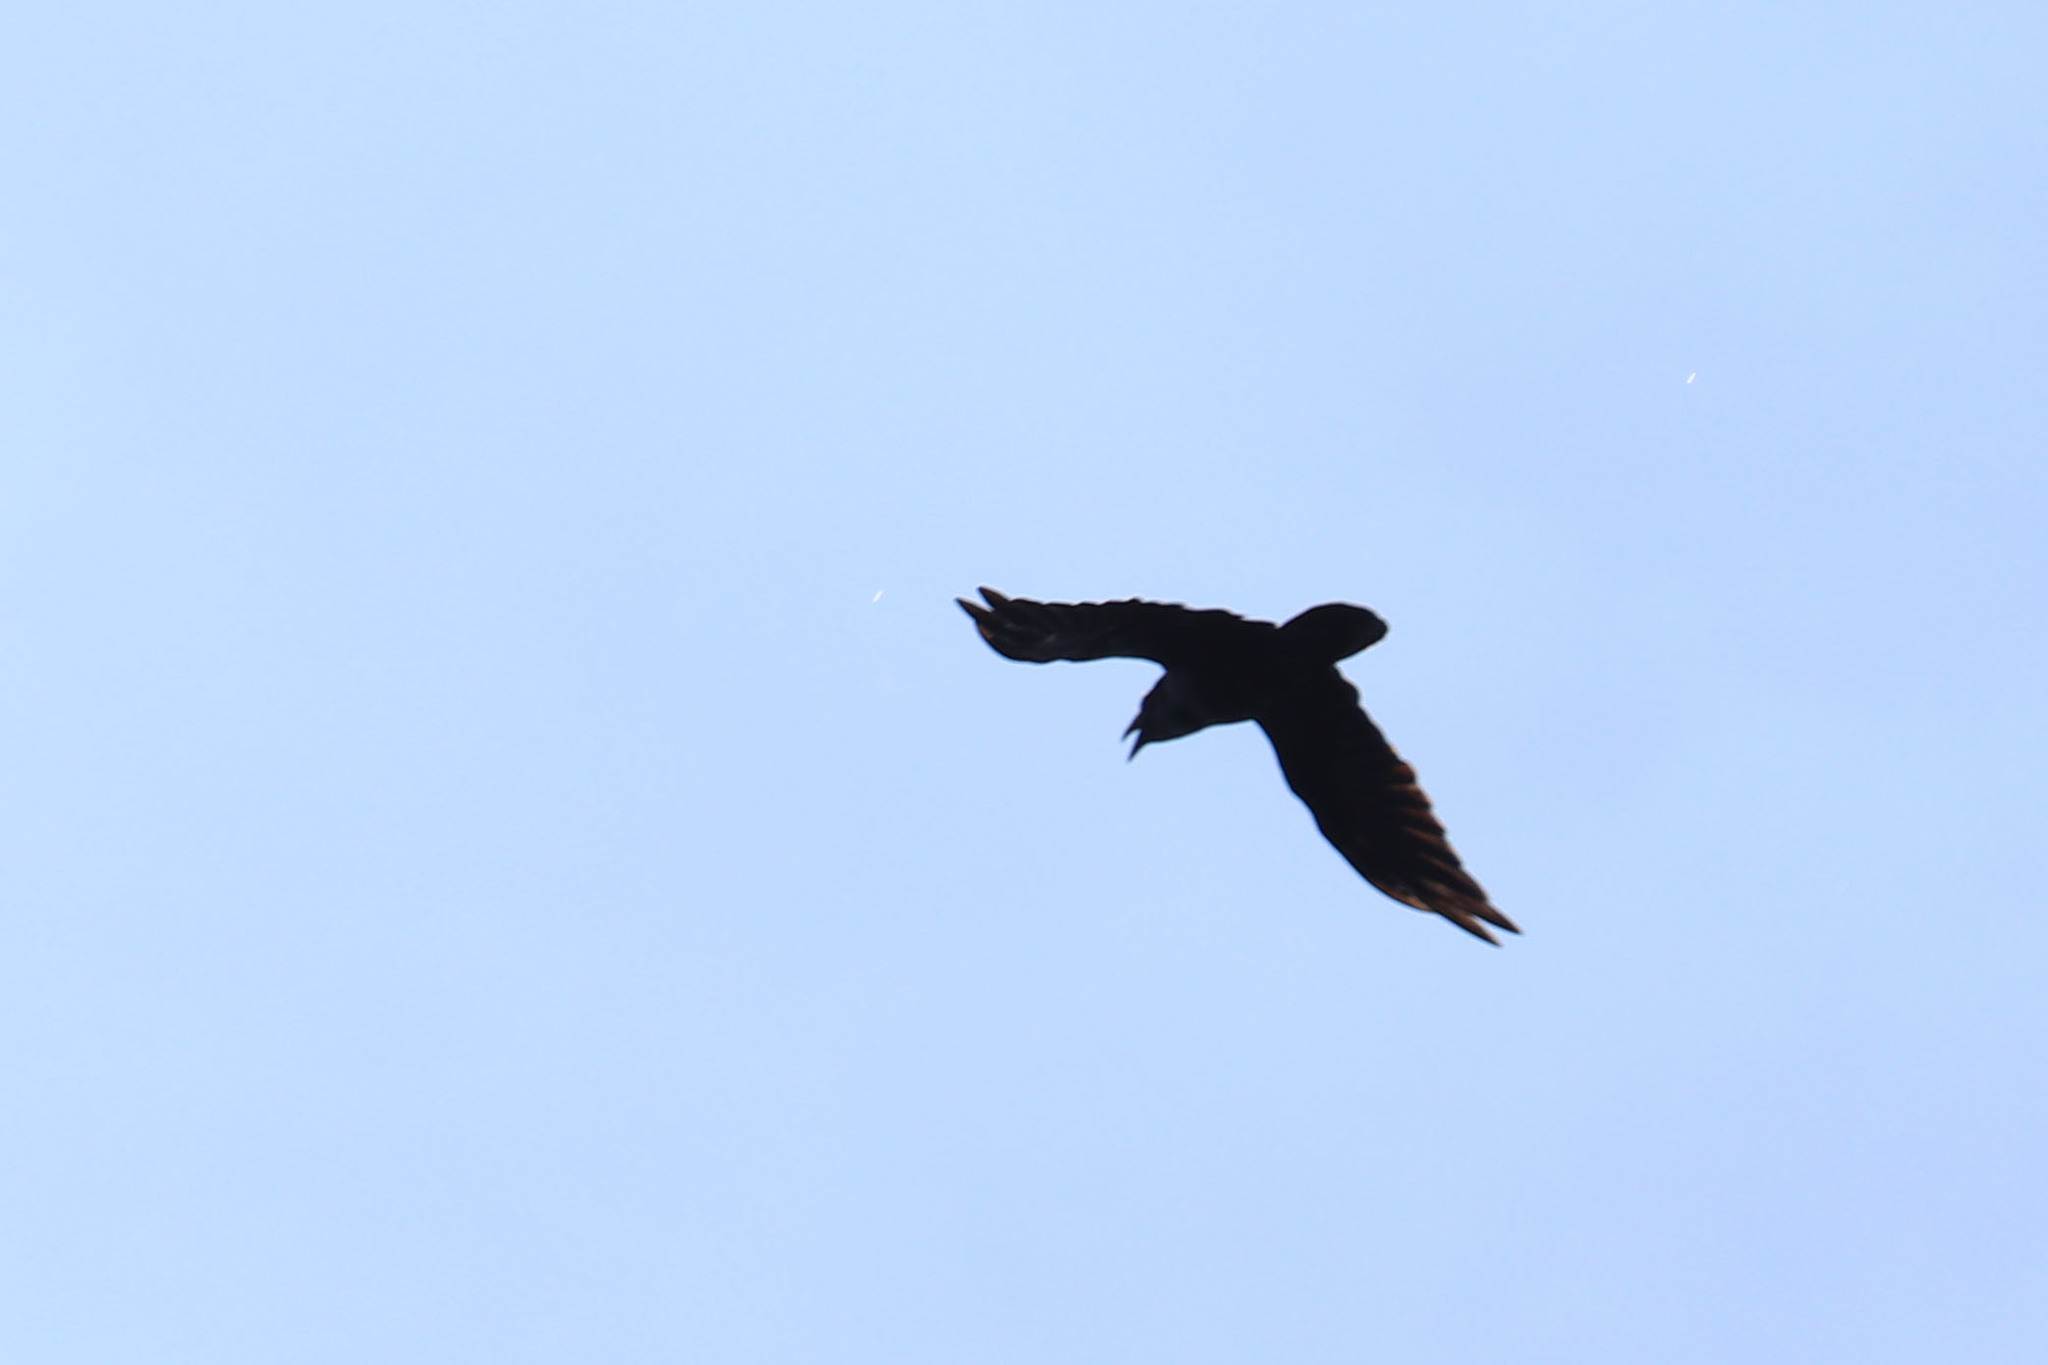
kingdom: Animalia
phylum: Chordata
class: Aves
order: Passeriformes
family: Corvidae
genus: Corvus
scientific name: Corvus corax
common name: Common raven
